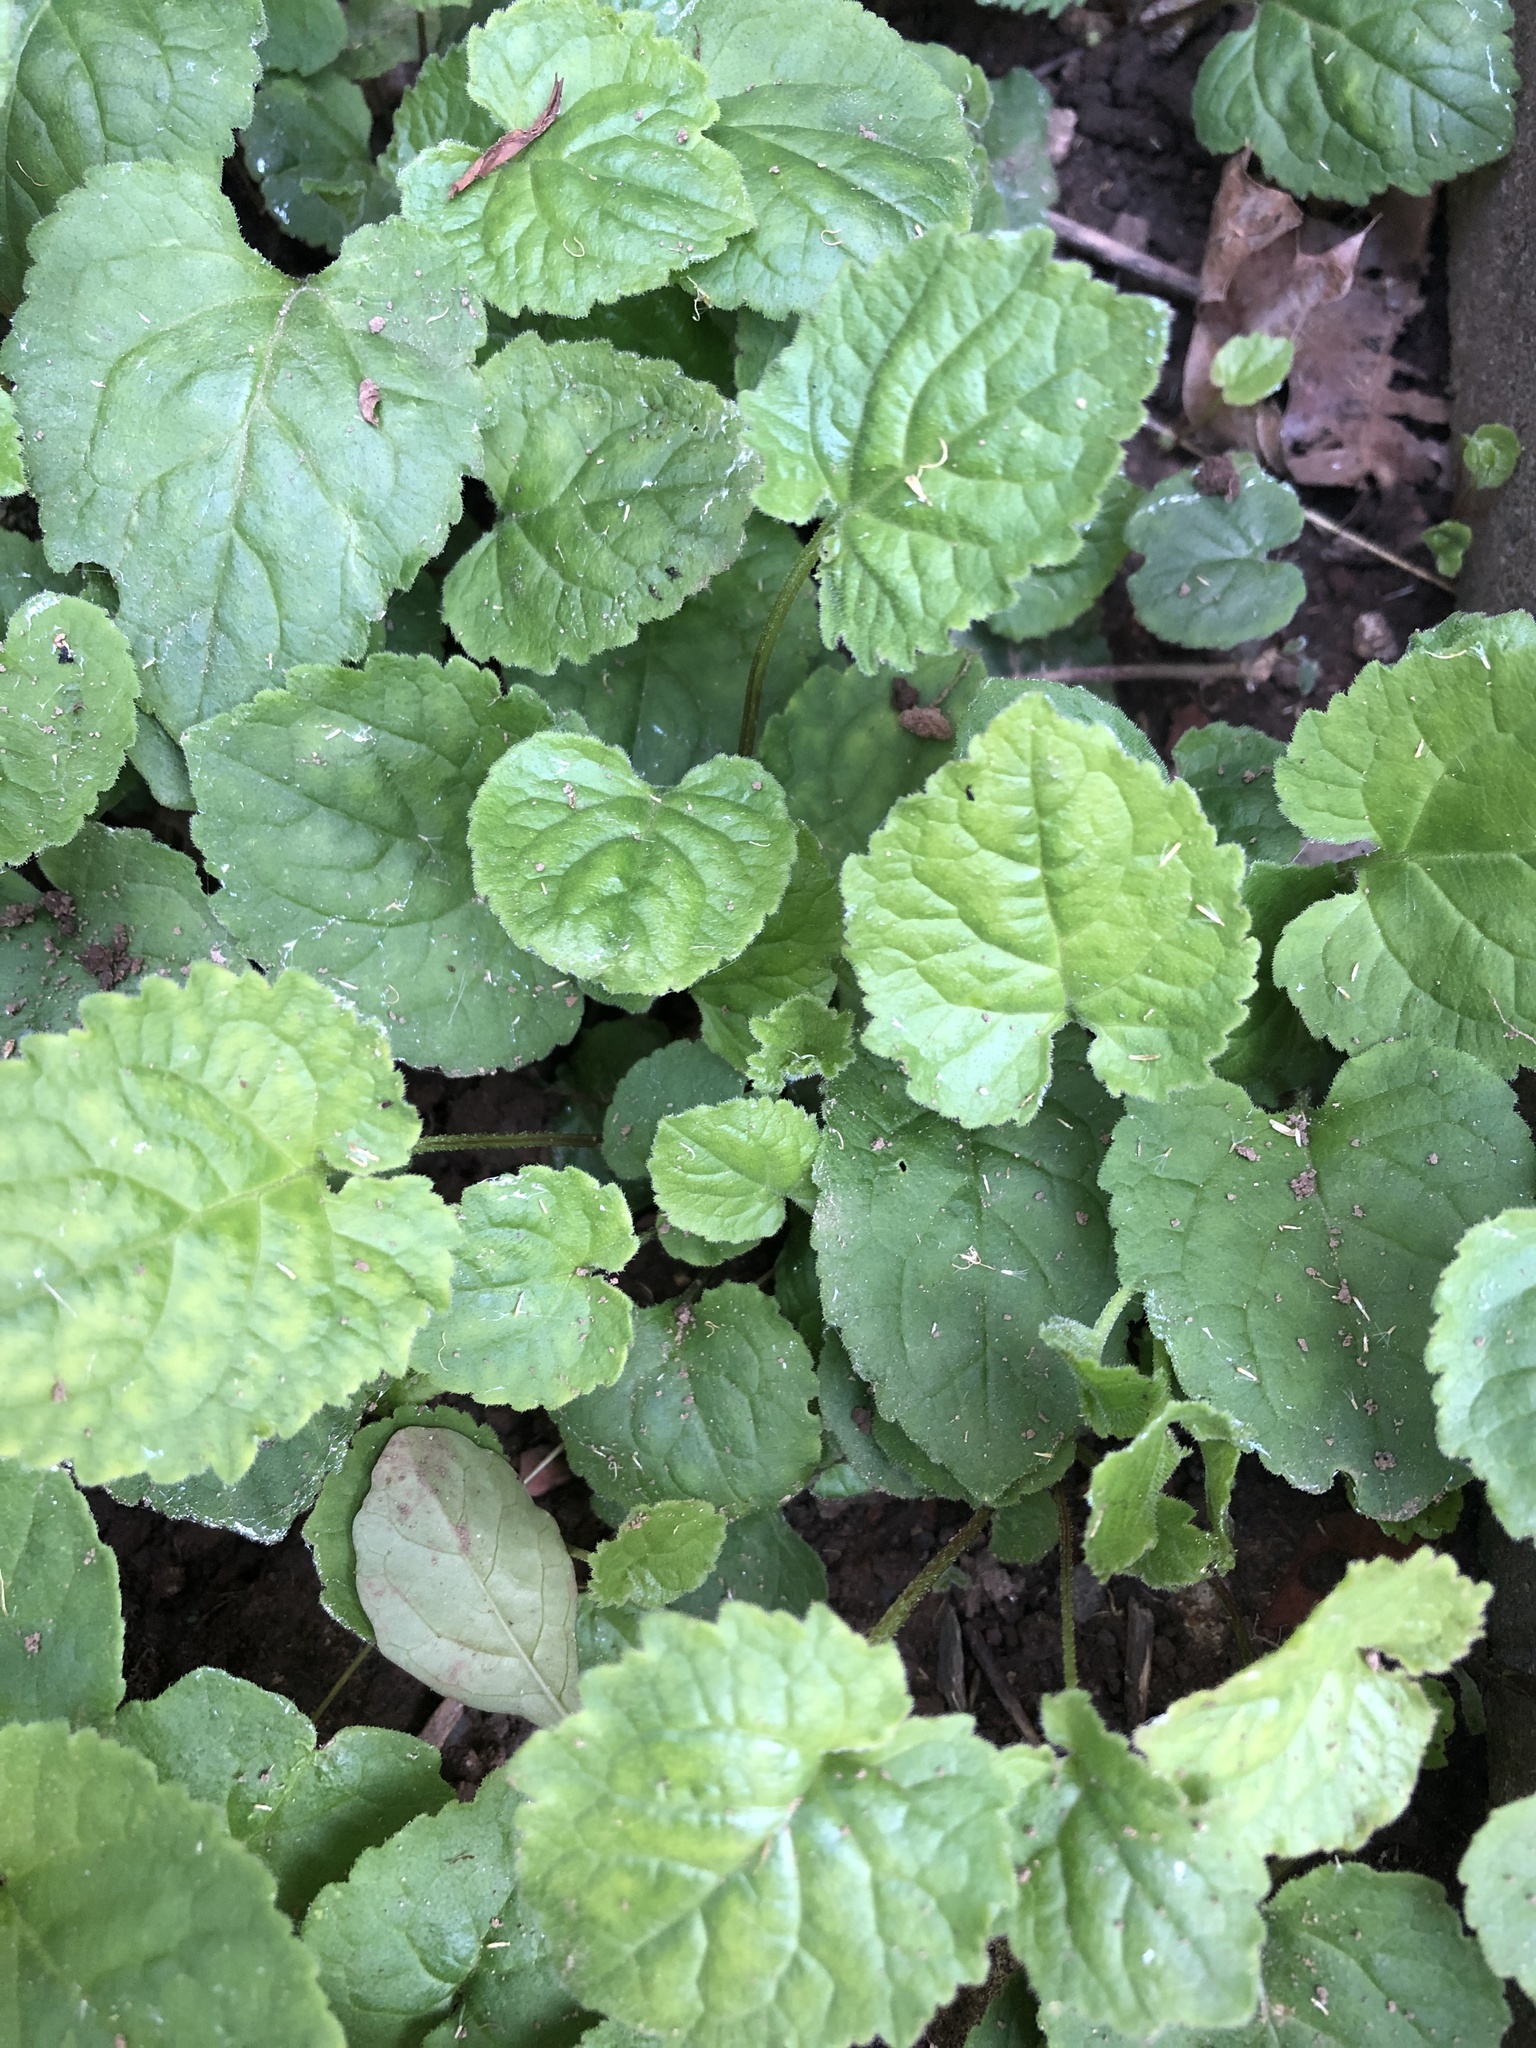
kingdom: Plantae
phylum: Tracheophyta
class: Magnoliopsida
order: Asterales
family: Campanulaceae
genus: Campanula
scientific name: Campanula rapunculoides
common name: Creeping bellflower
